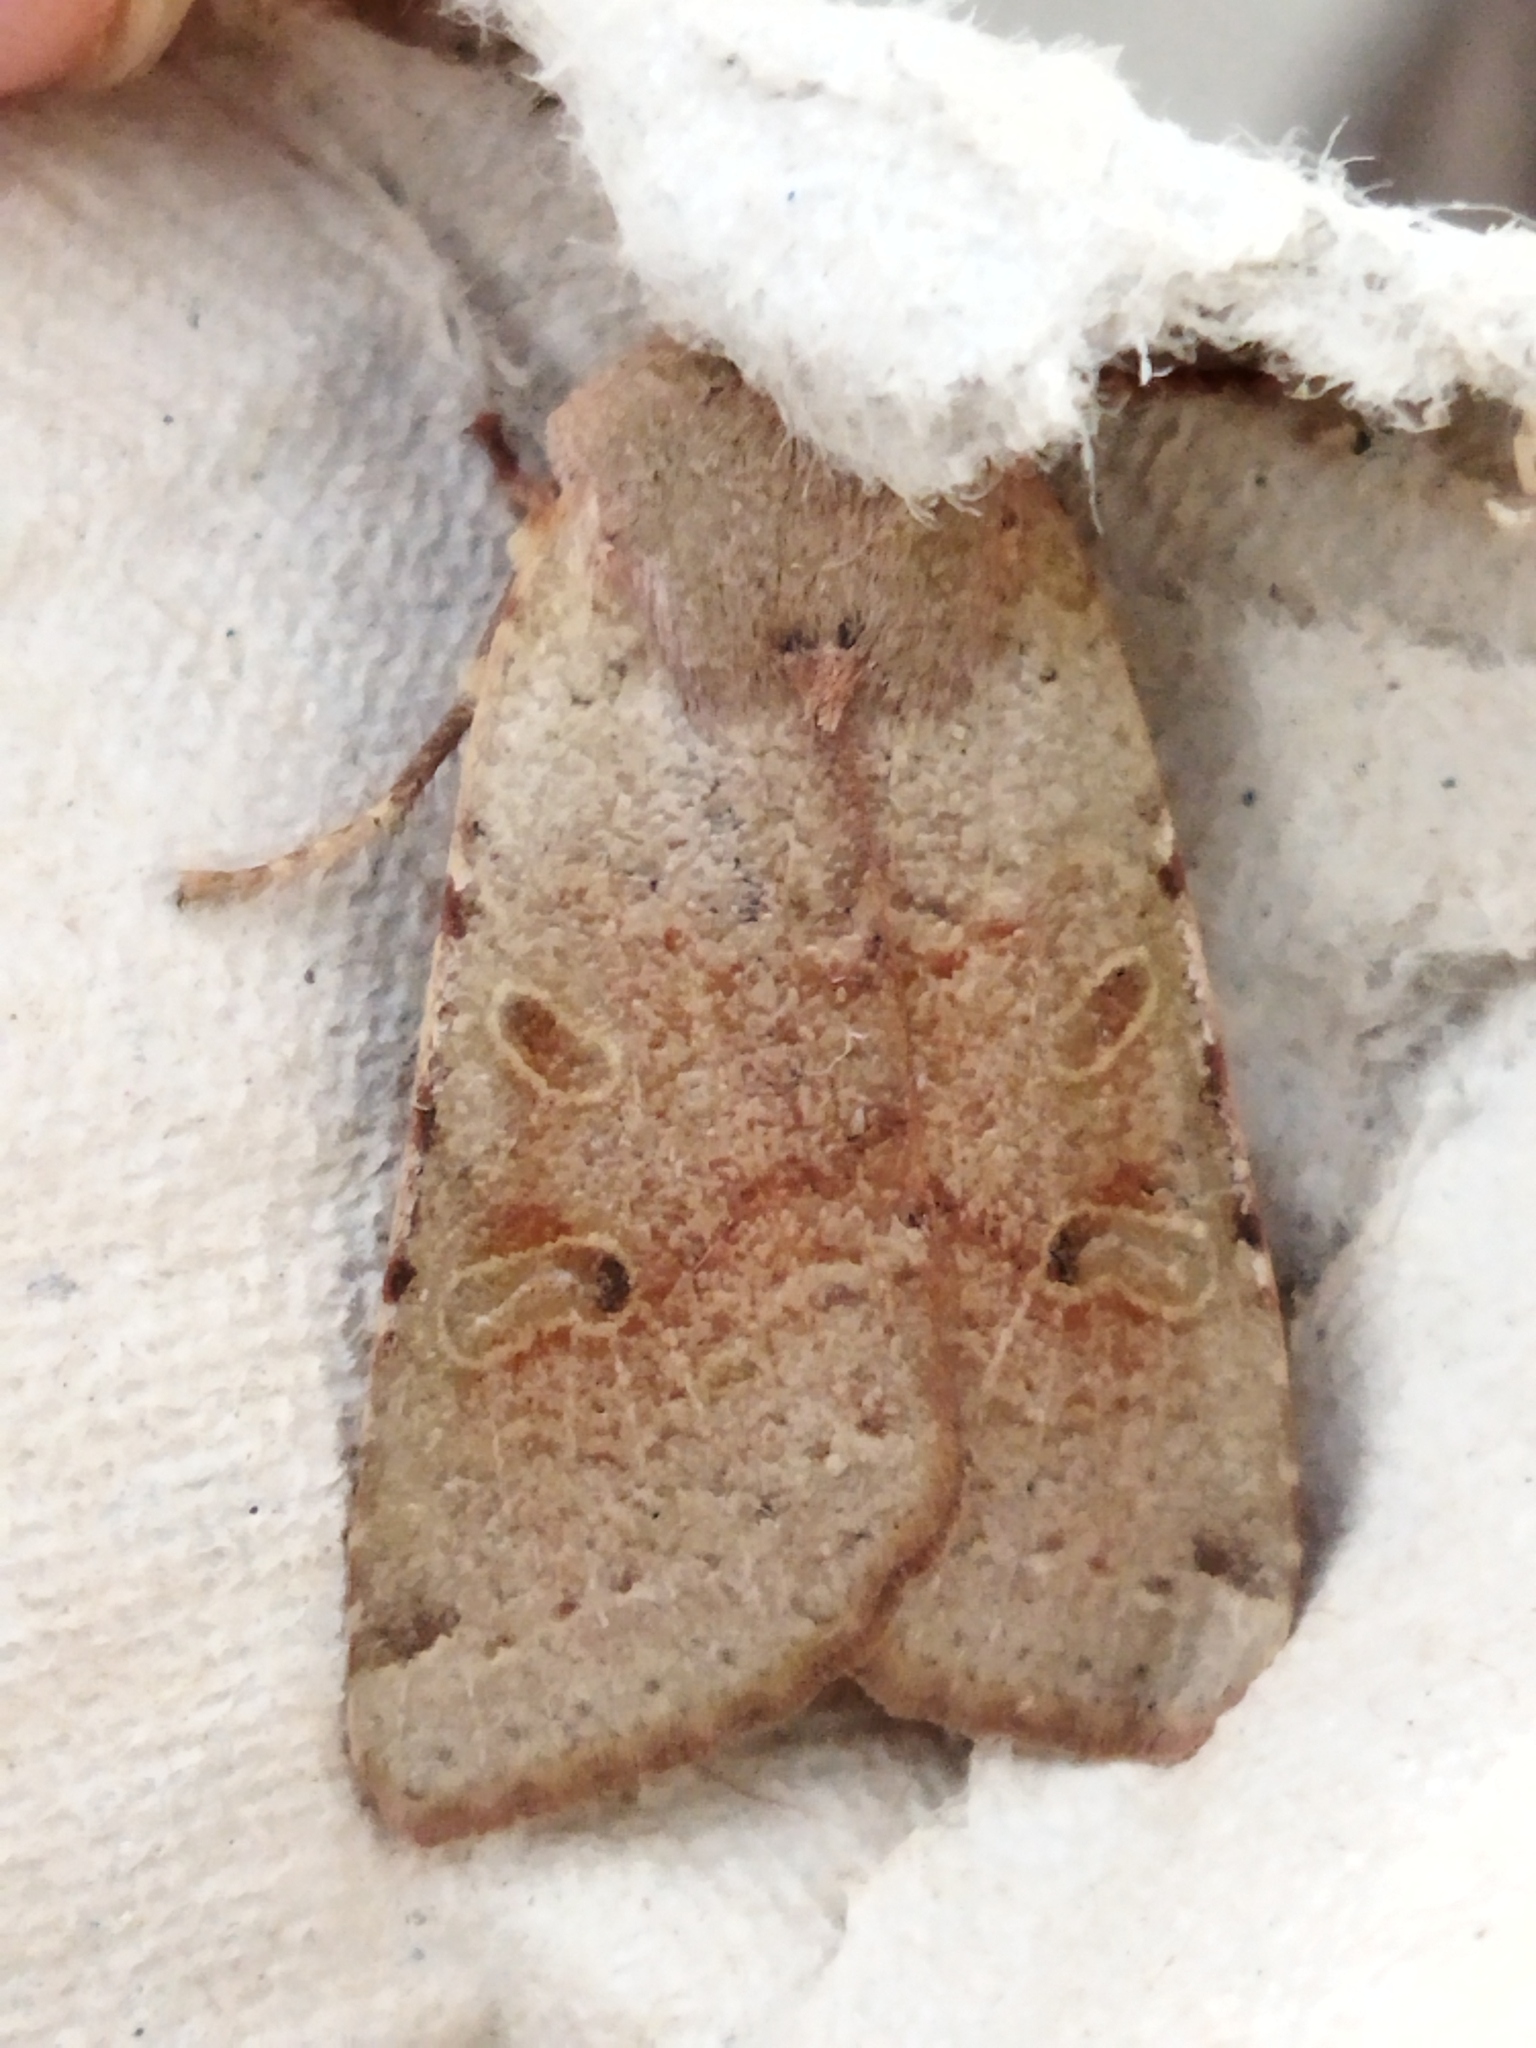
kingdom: Animalia
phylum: Arthropoda
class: Insecta
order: Lepidoptera
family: Noctuidae
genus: Agrochola
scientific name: Agrochola lychnidis
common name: Beaded chestnut
